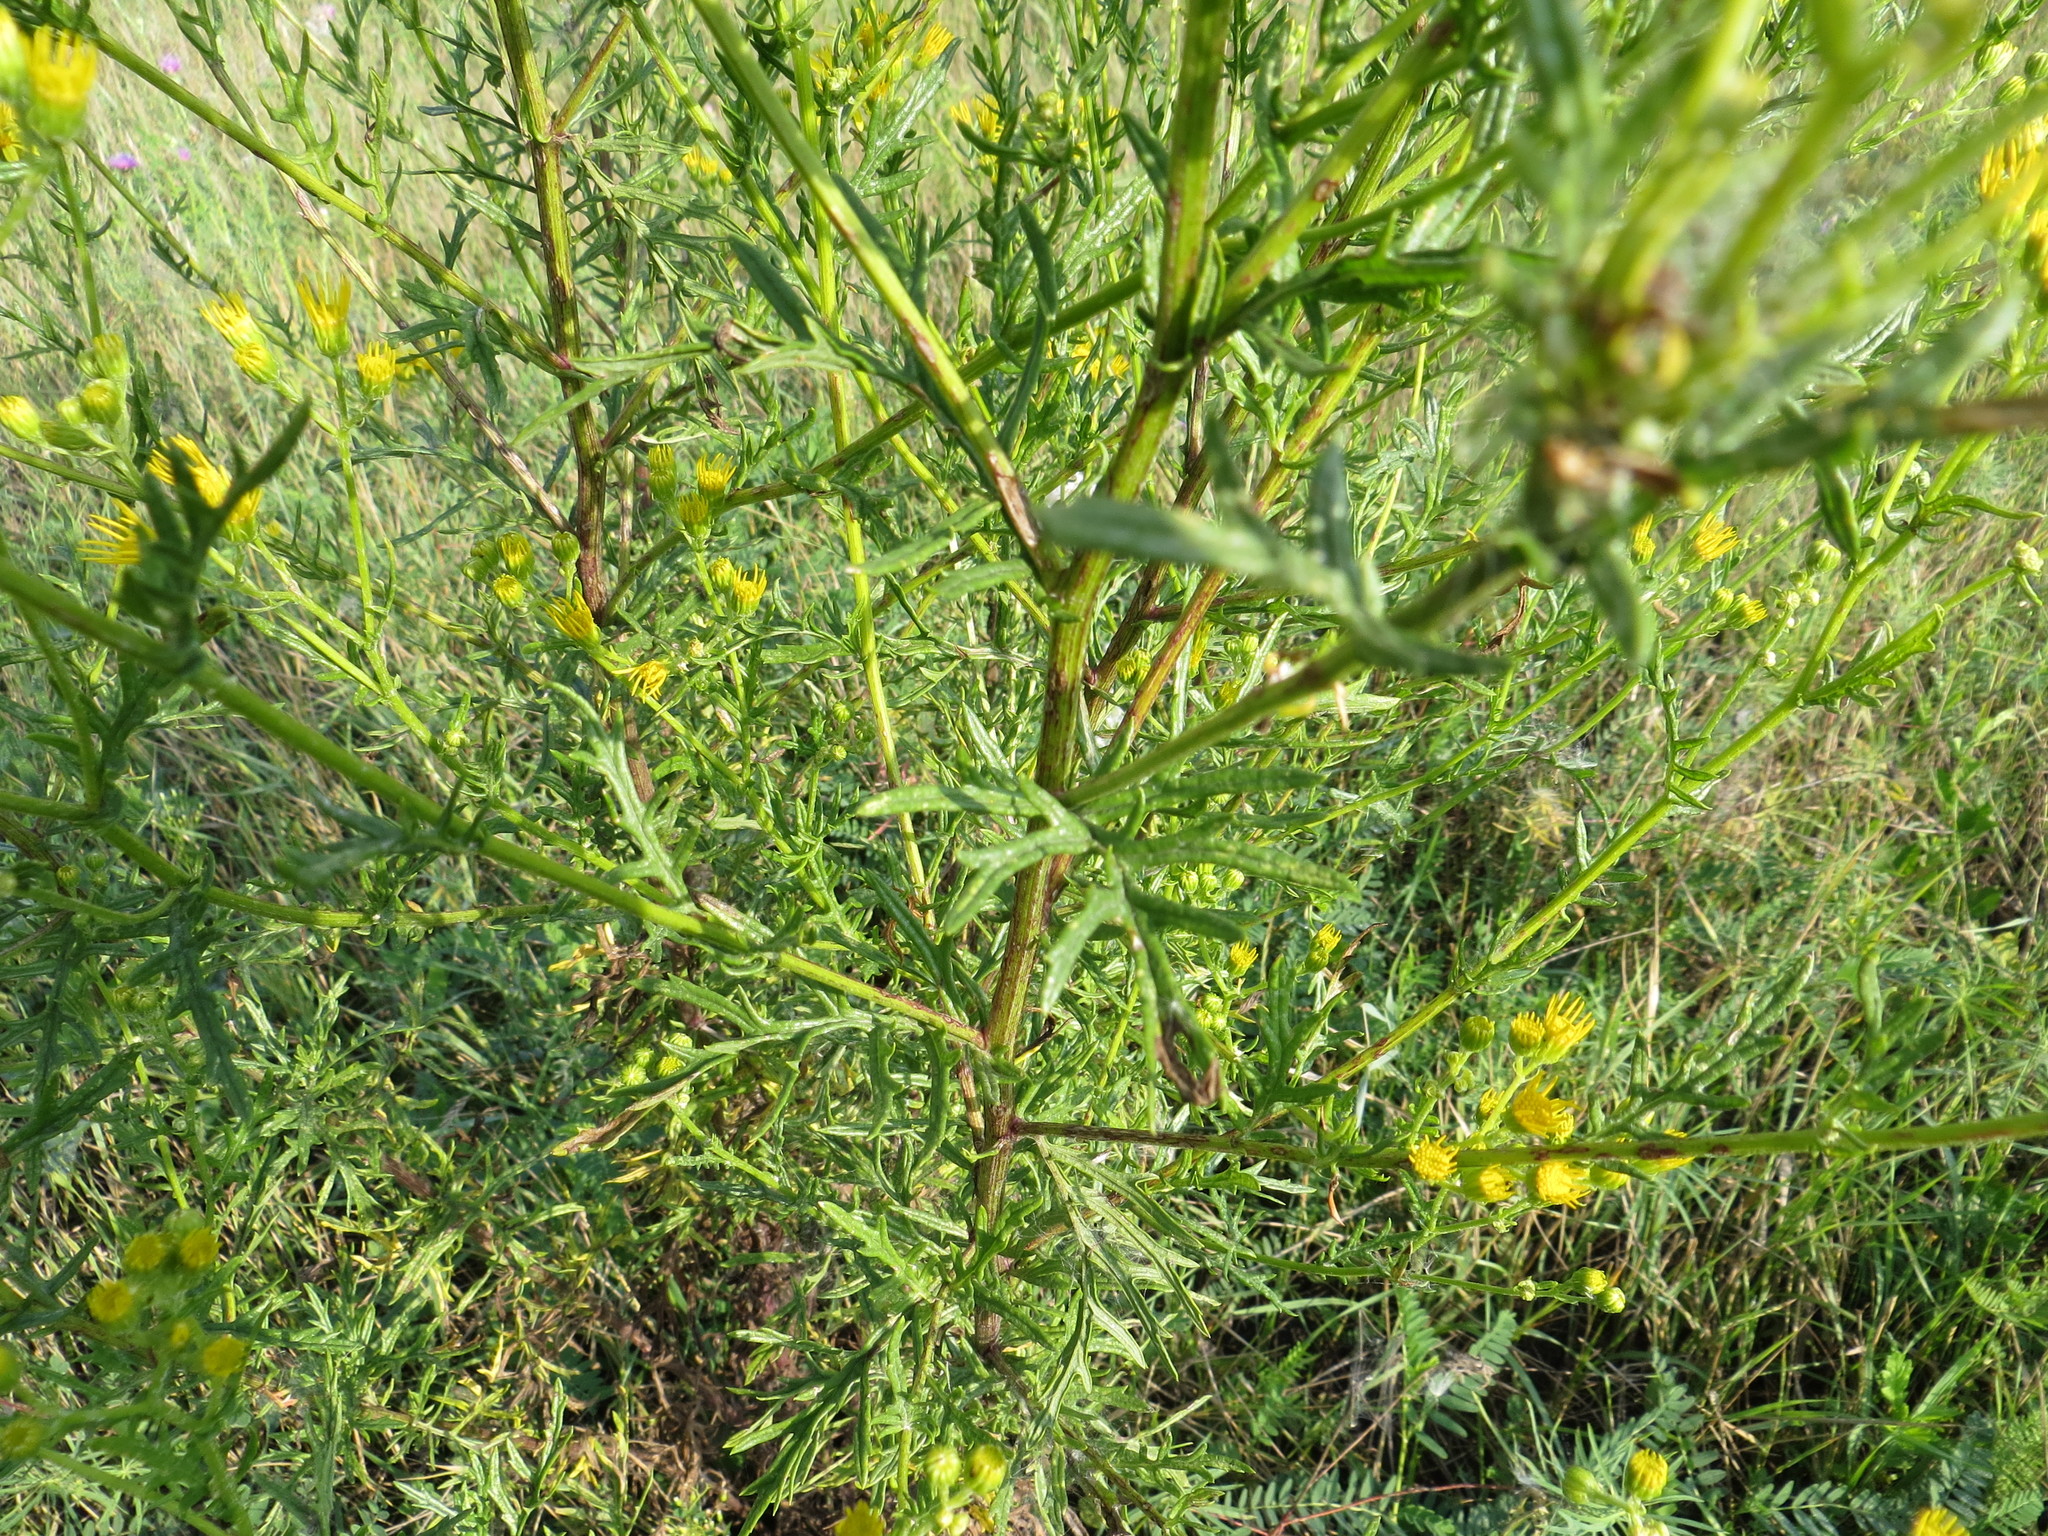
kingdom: Plantae
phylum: Tracheophyta
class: Magnoliopsida
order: Asterales
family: Asteraceae
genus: Jacobaea
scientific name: Jacobaea vulgaris
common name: Stinking willie
